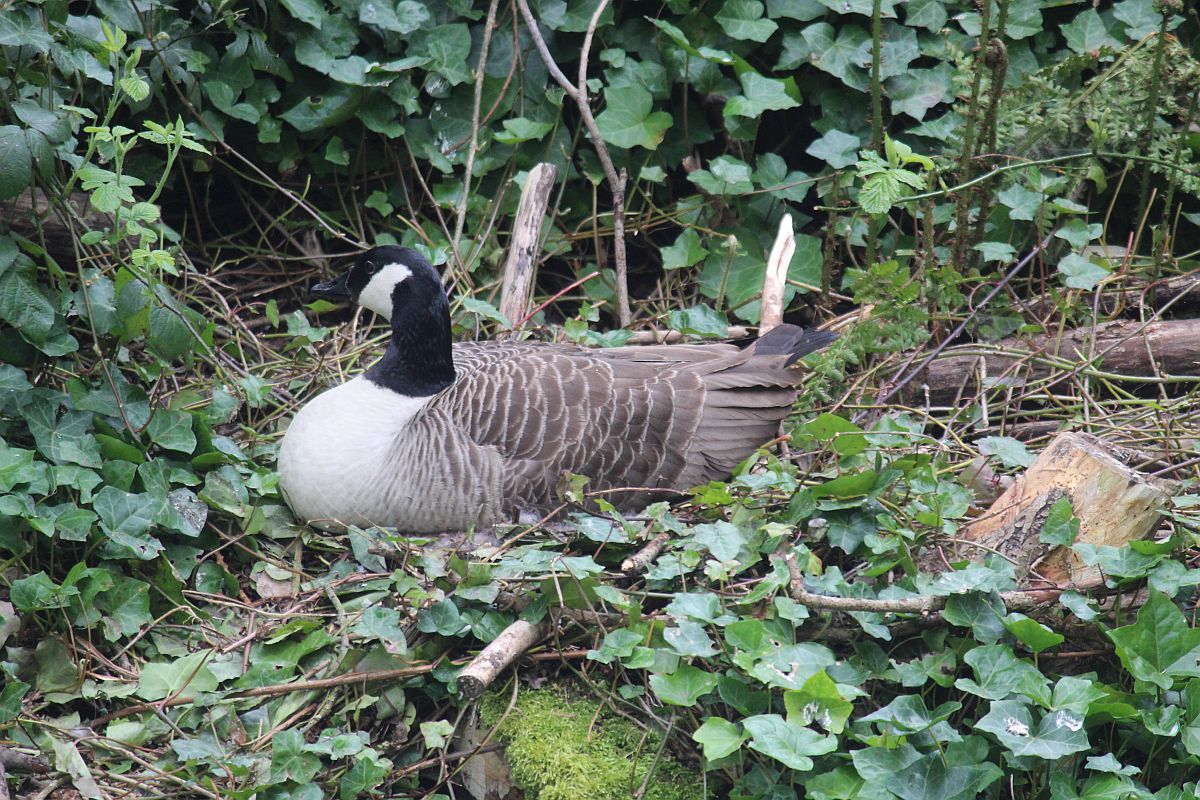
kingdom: Animalia
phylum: Chordata
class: Aves
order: Anseriformes
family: Anatidae
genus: Branta
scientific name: Branta canadensis
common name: Canada goose
